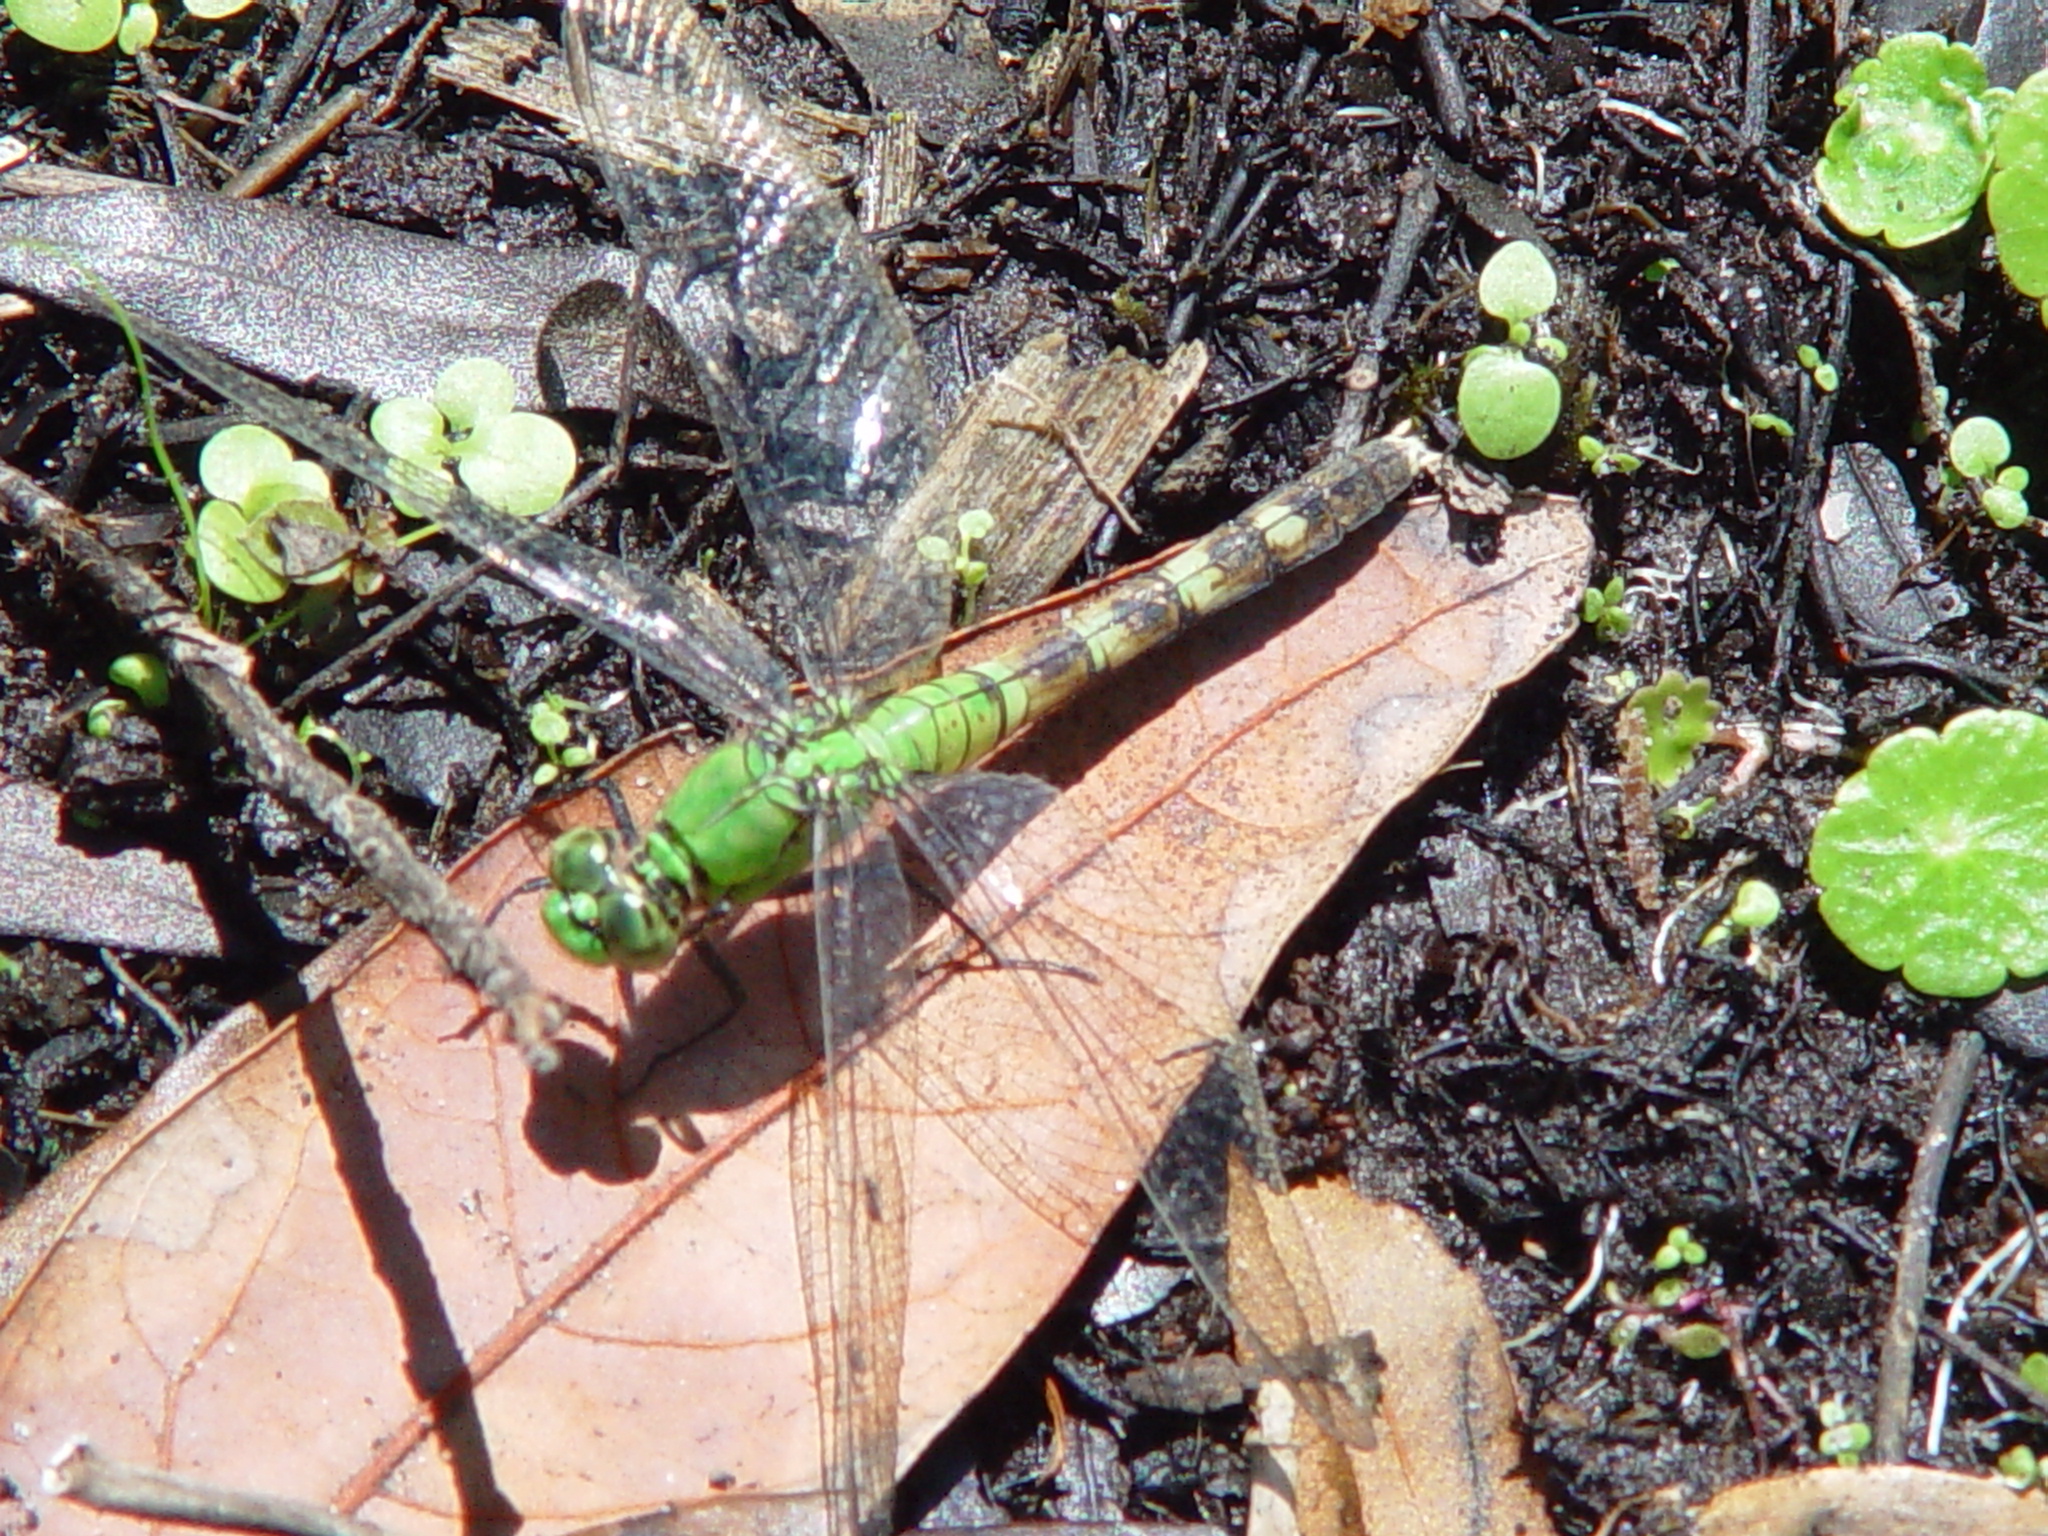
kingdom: Animalia
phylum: Arthropoda
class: Insecta
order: Odonata
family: Libellulidae
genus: Erythemis
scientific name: Erythemis simplicicollis
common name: Eastern pondhawk
